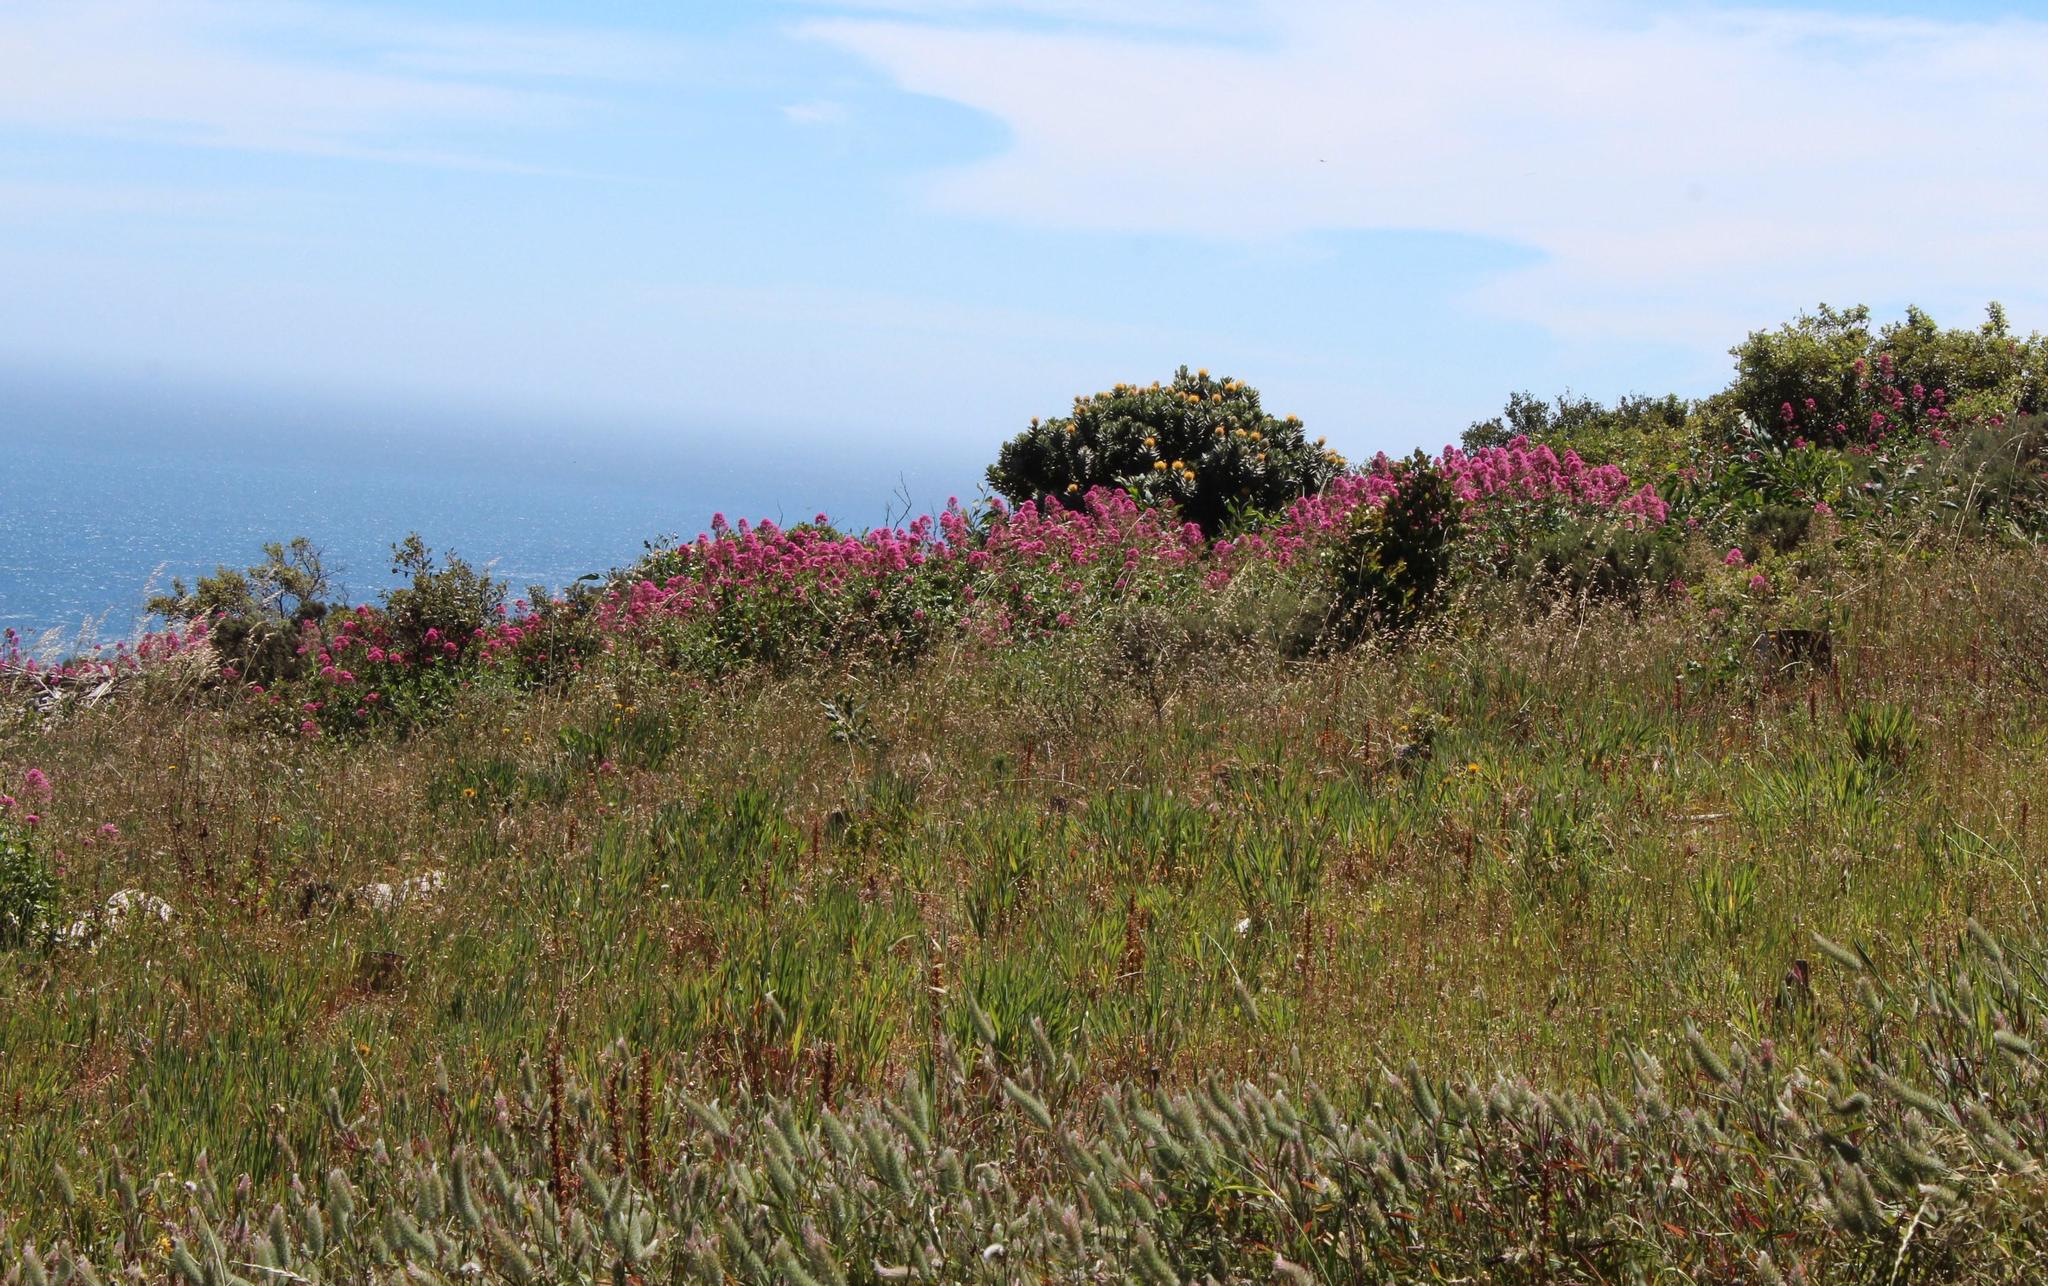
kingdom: Plantae
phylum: Tracheophyta
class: Magnoliopsida
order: Dipsacales
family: Caprifoliaceae
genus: Centranthus
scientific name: Centranthus ruber
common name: Red valerian
